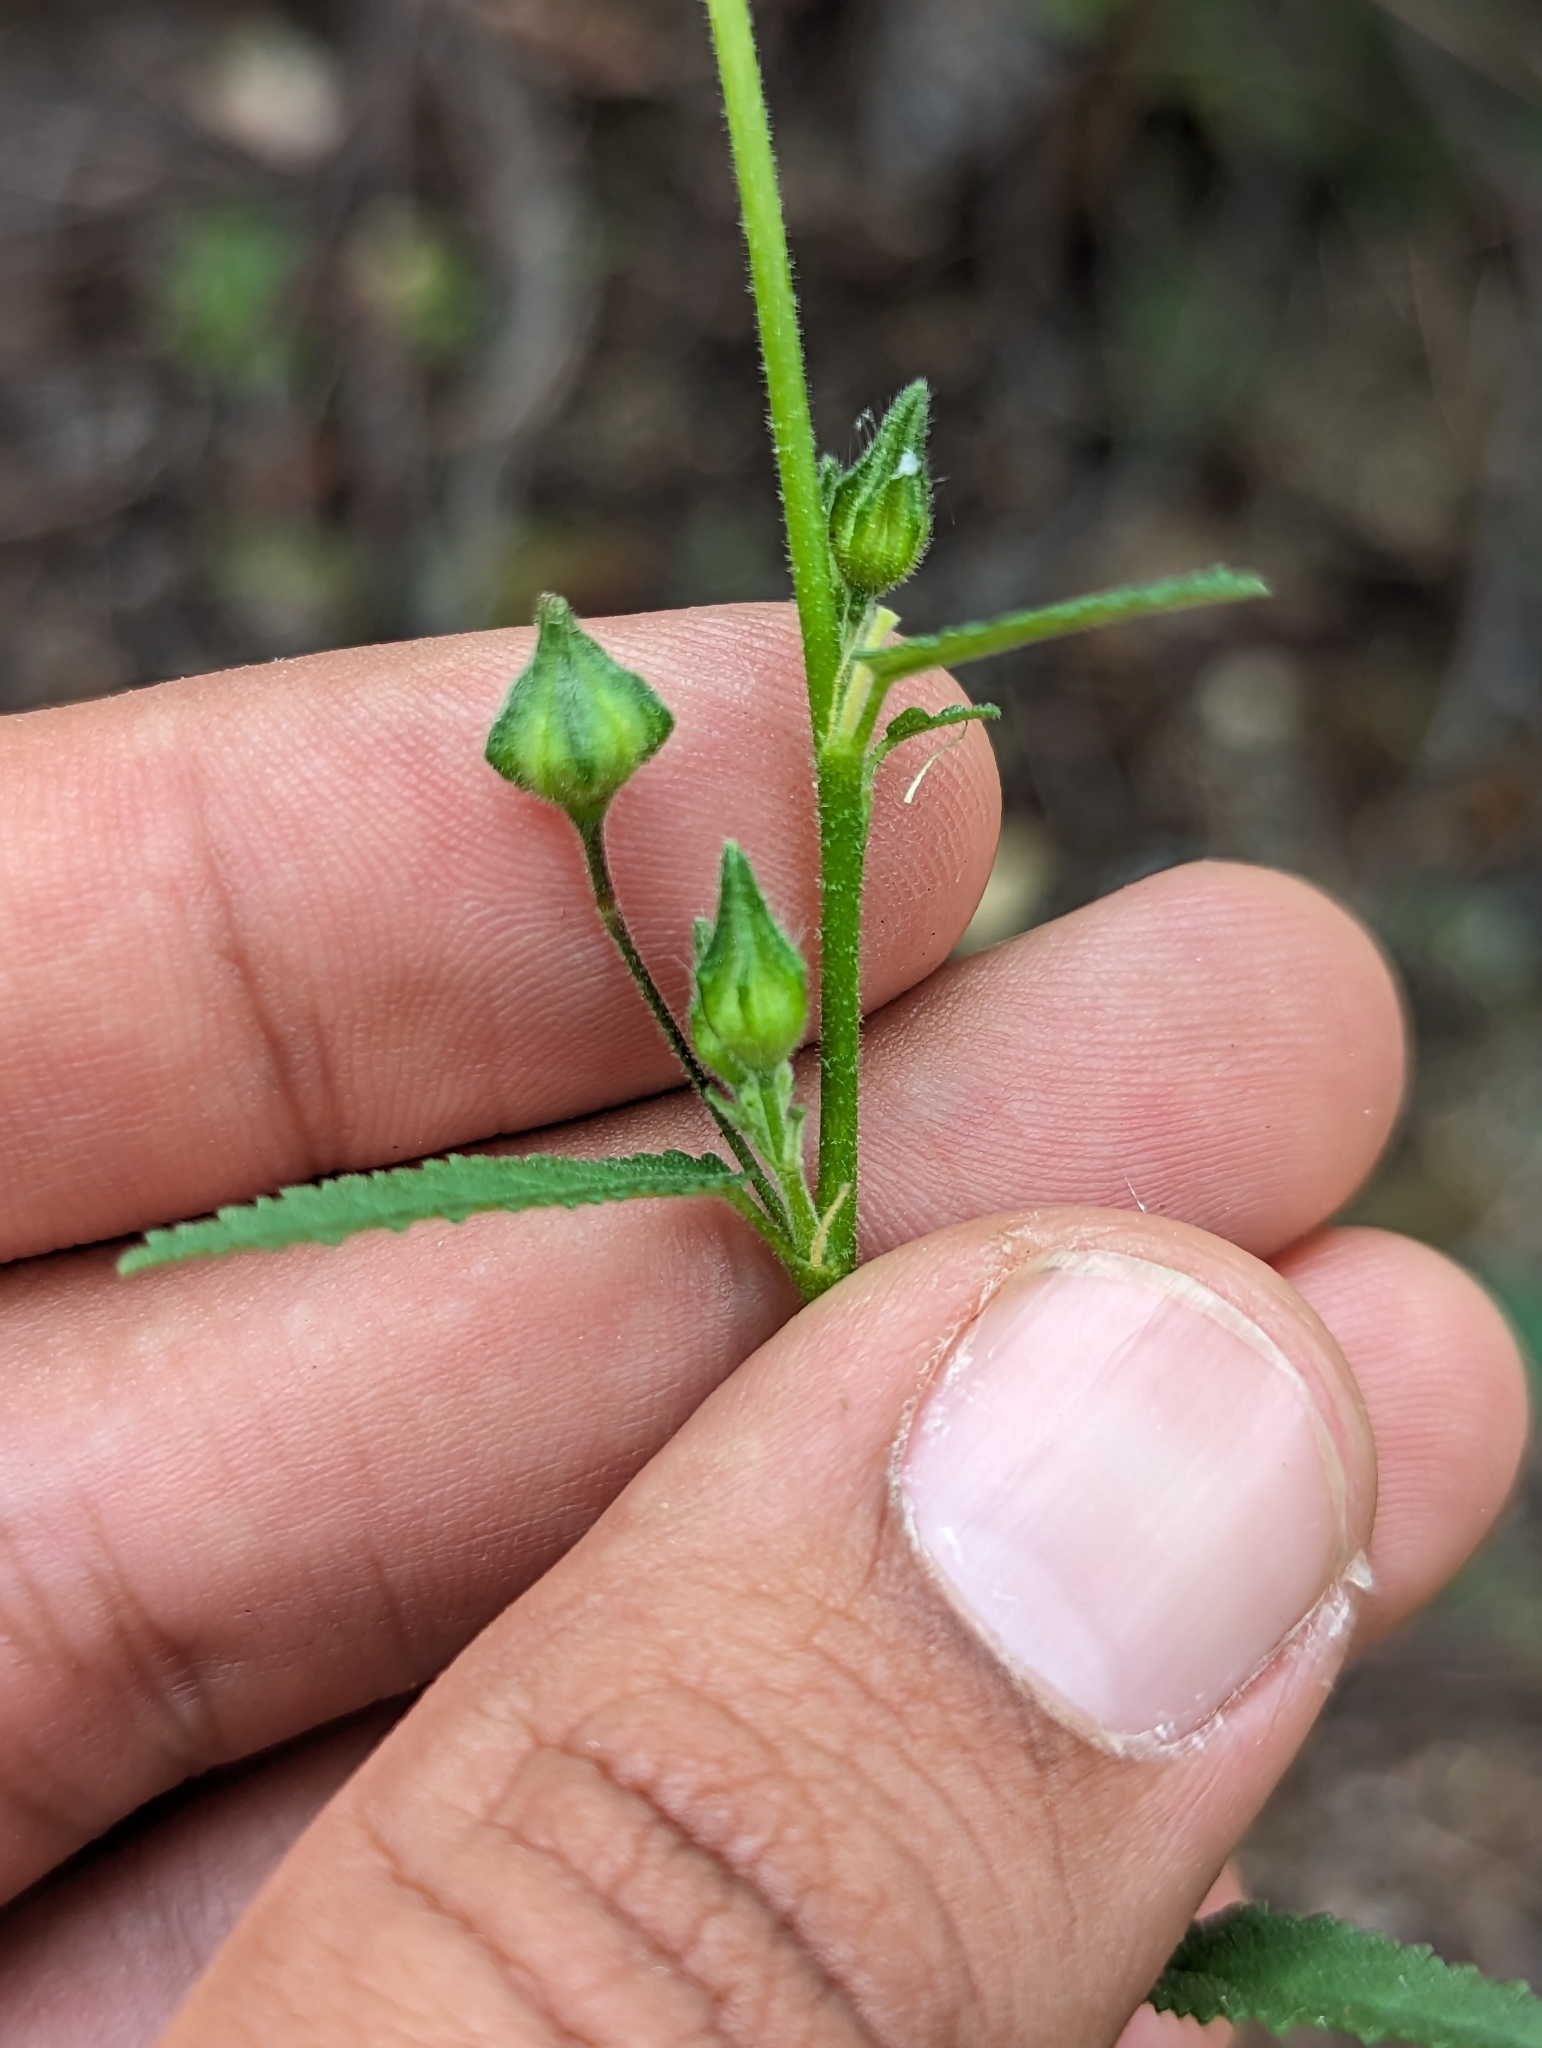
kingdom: Plantae
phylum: Tracheophyta
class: Magnoliopsida
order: Malvales
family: Malvaceae
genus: Sida
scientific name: Sida xanti
